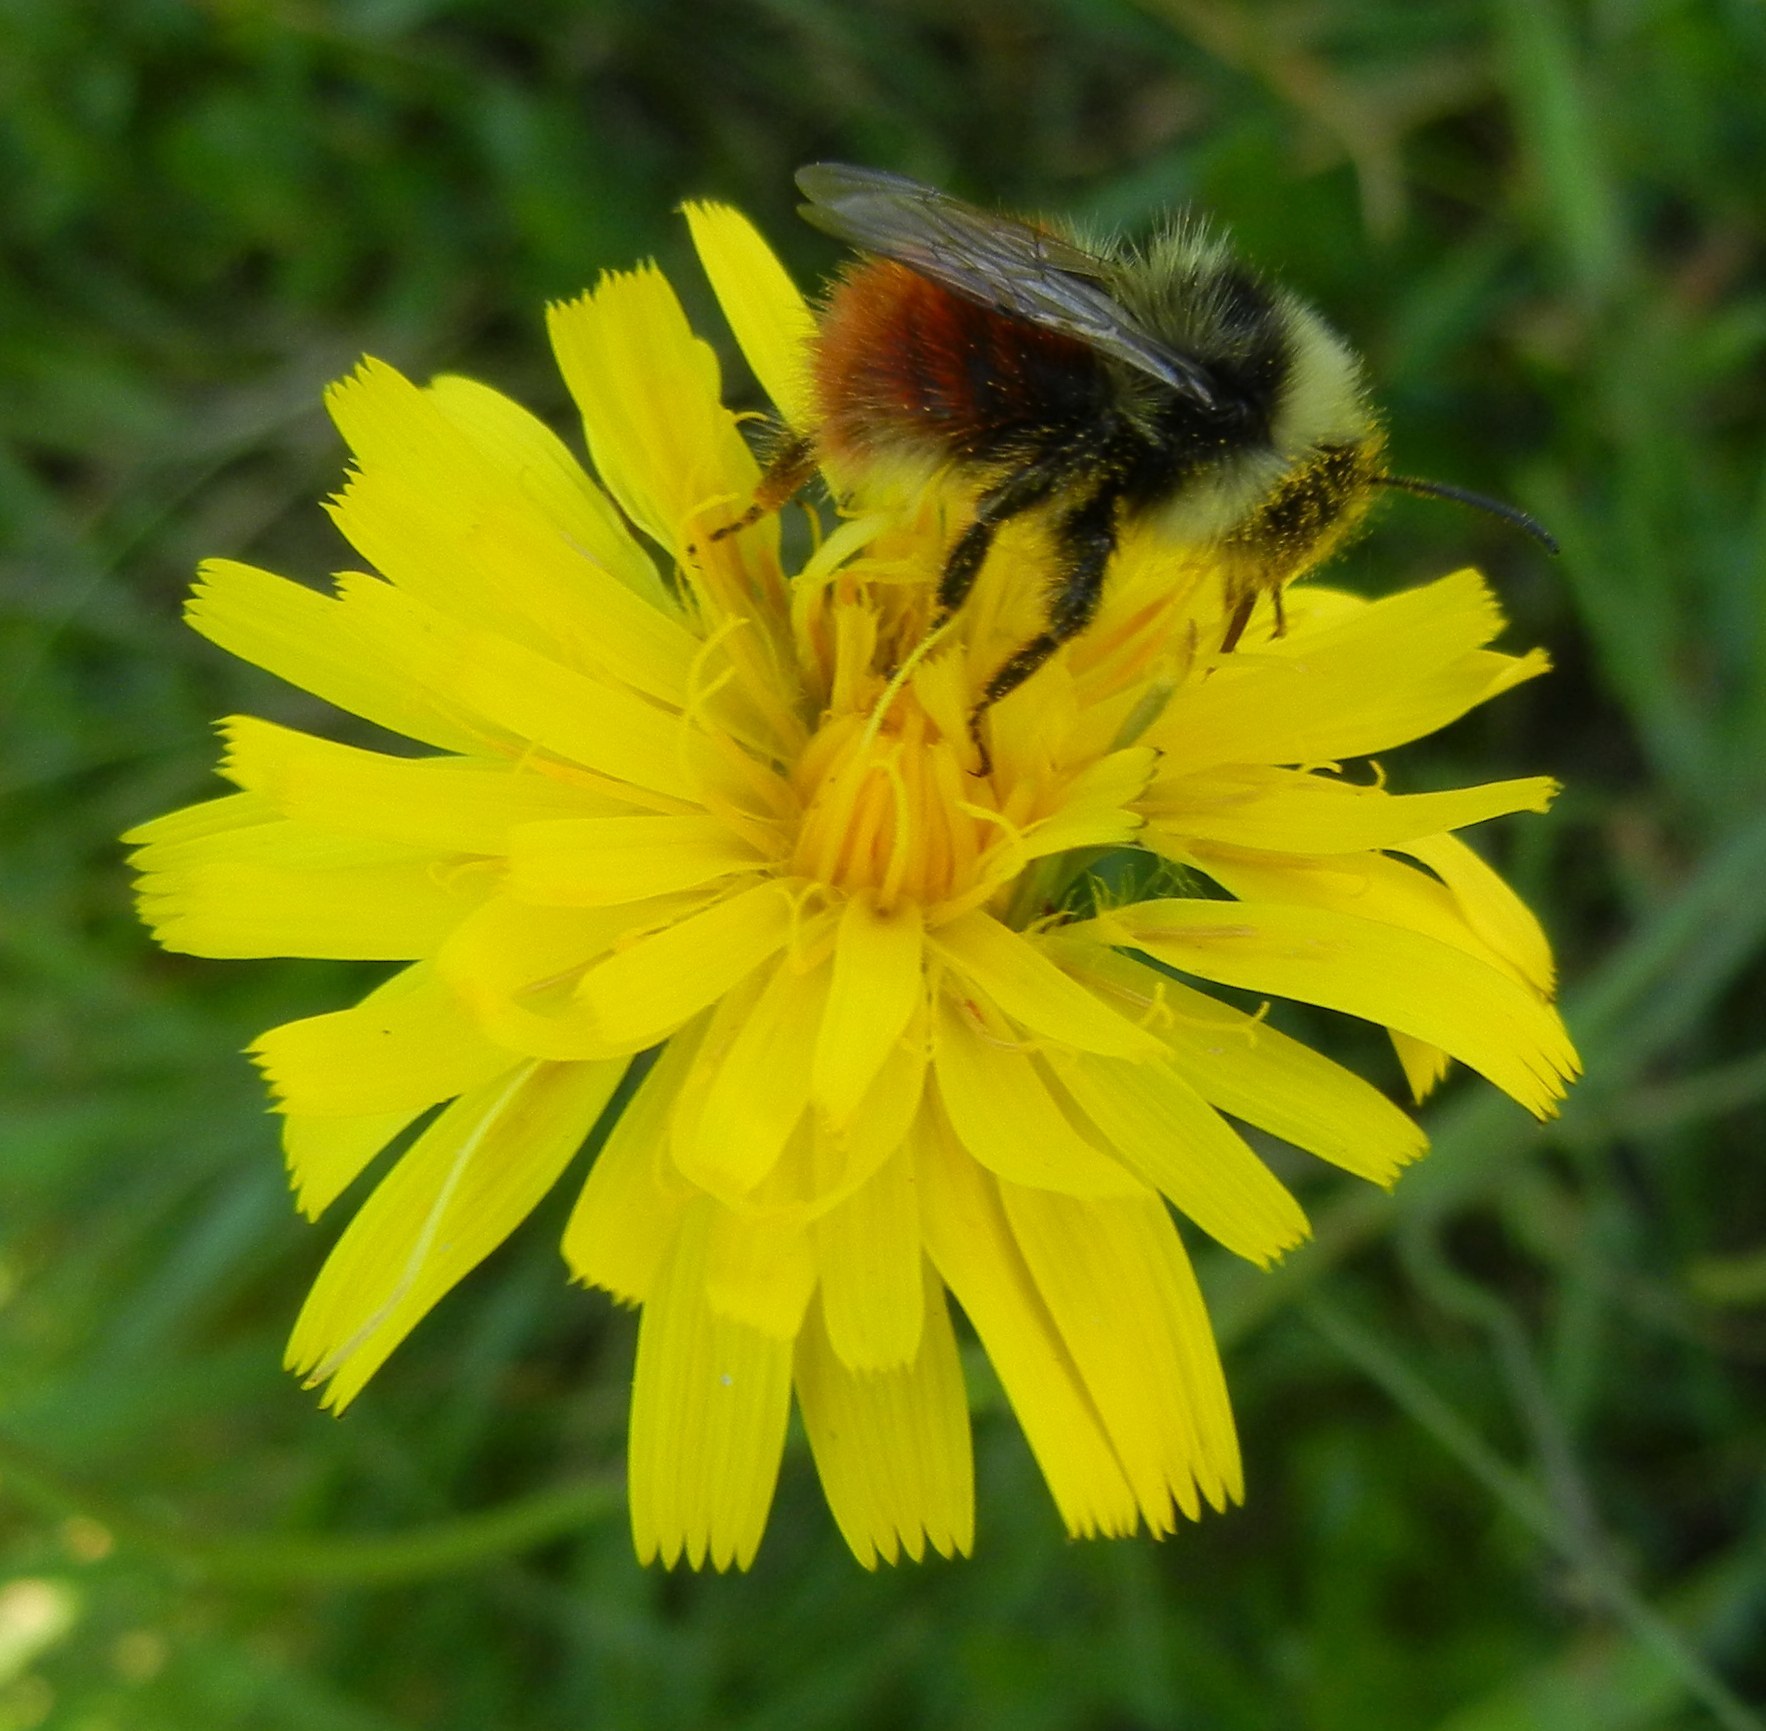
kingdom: Animalia
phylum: Arthropoda
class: Insecta
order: Hymenoptera
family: Apidae
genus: Bombus
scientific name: Bombus monticola
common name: Bilberry humble-bee
